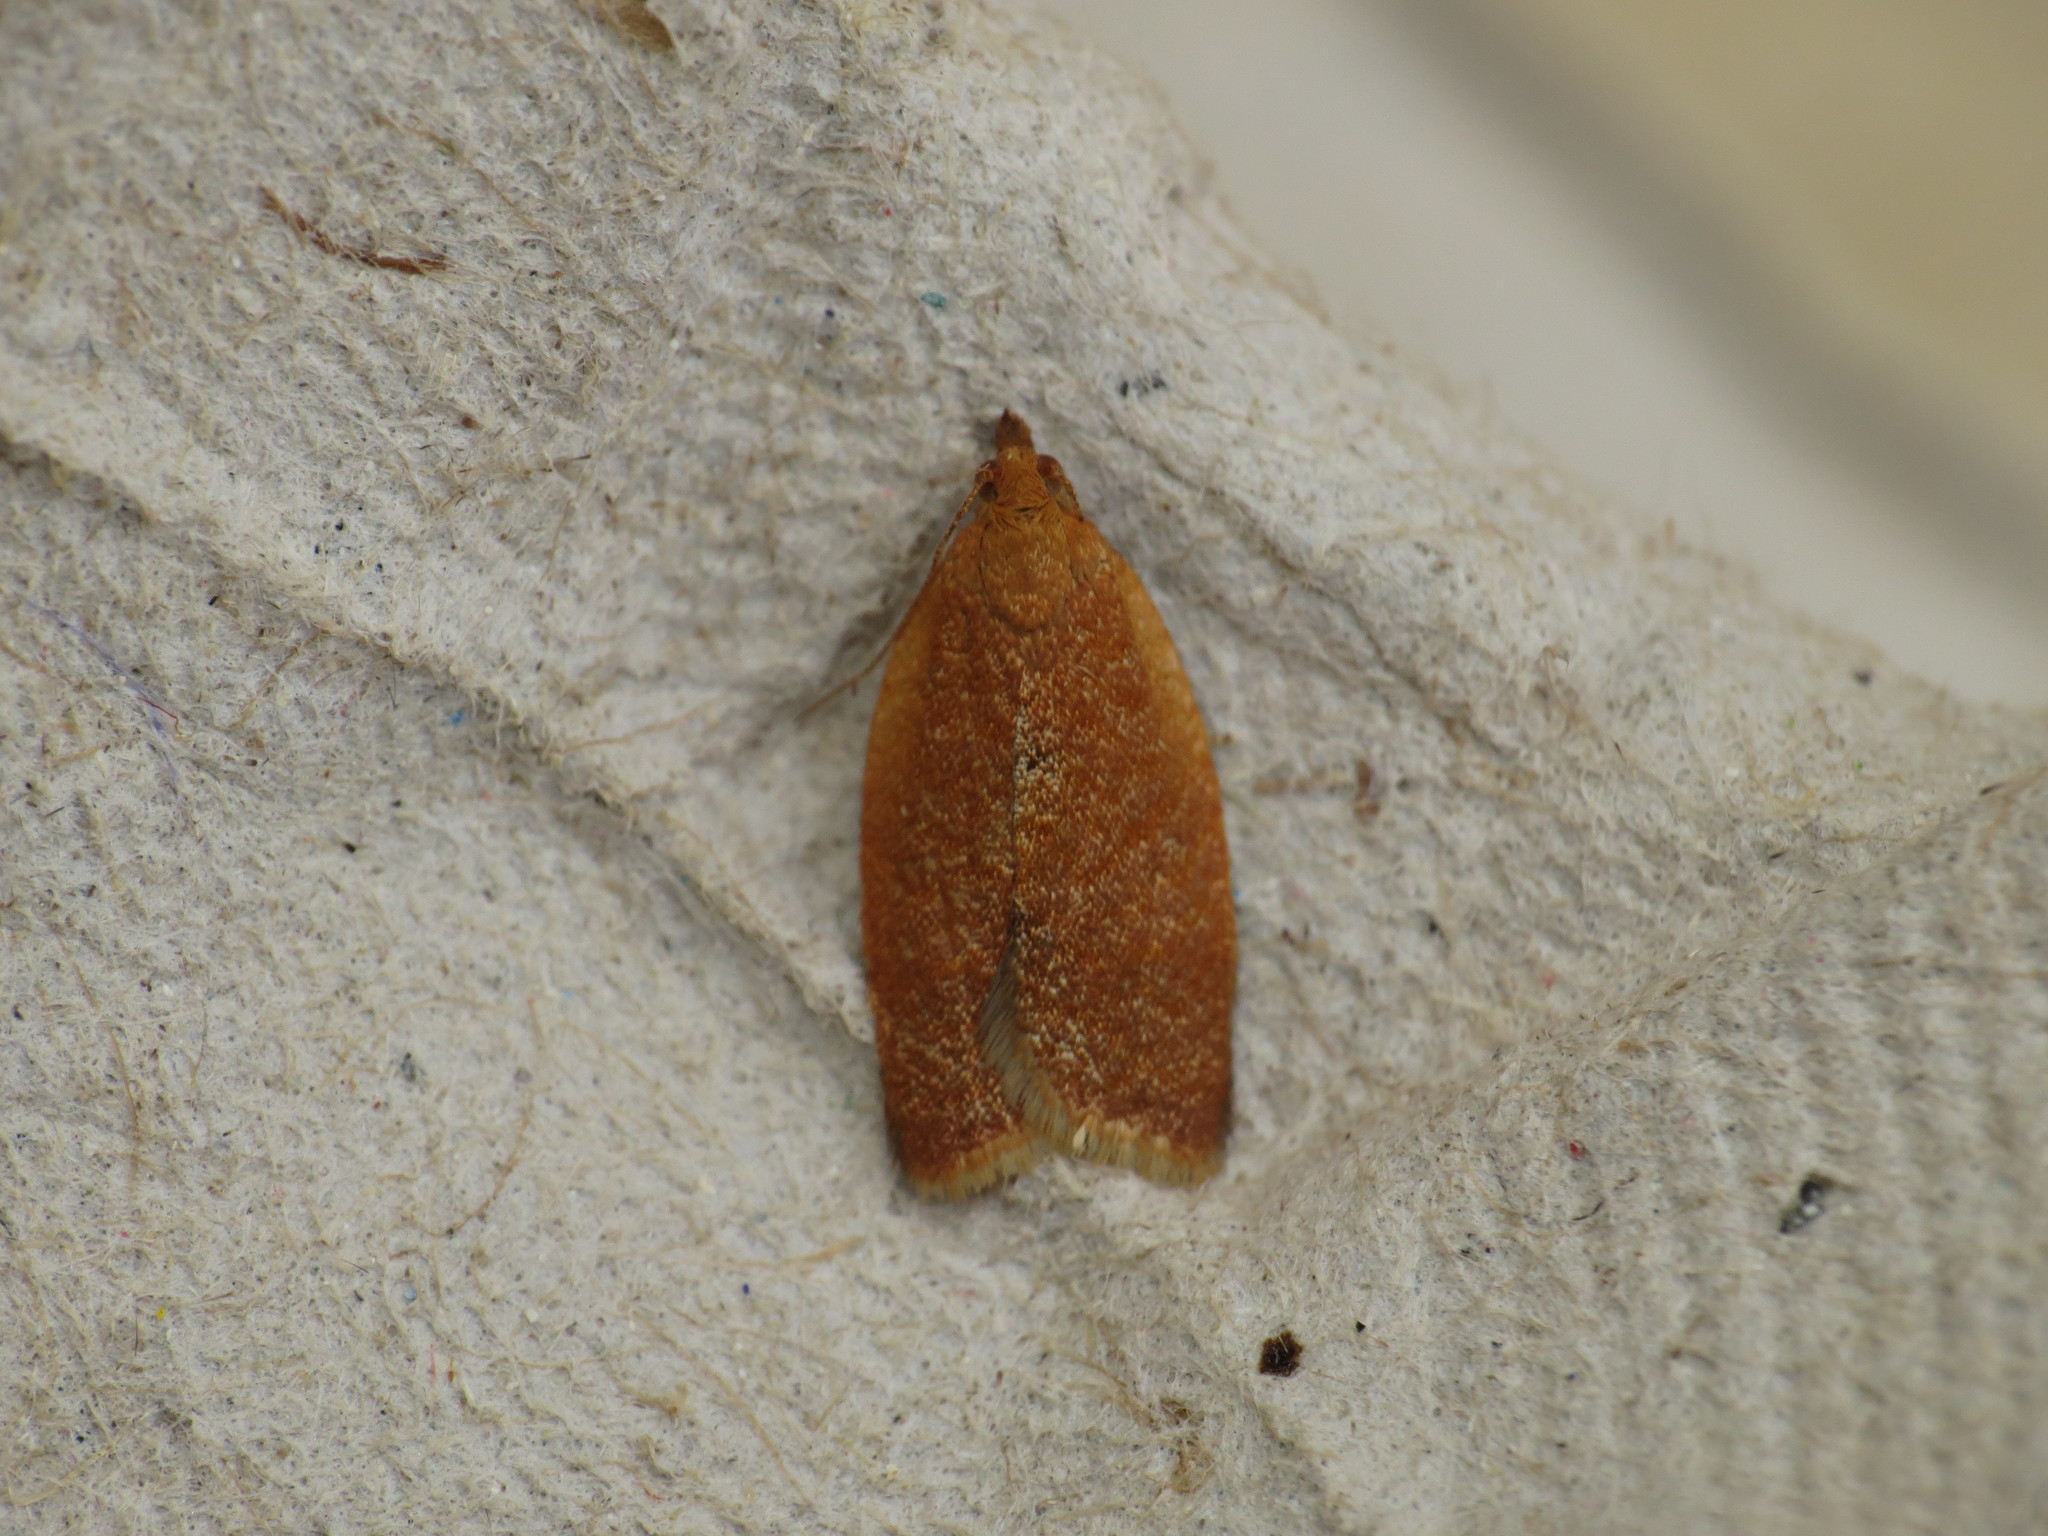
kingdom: Animalia
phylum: Arthropoda
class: Insecta
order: Lepidoptera
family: Tortricidae
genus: Clepsis
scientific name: Clepsis consimilana
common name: Privet tortrix
